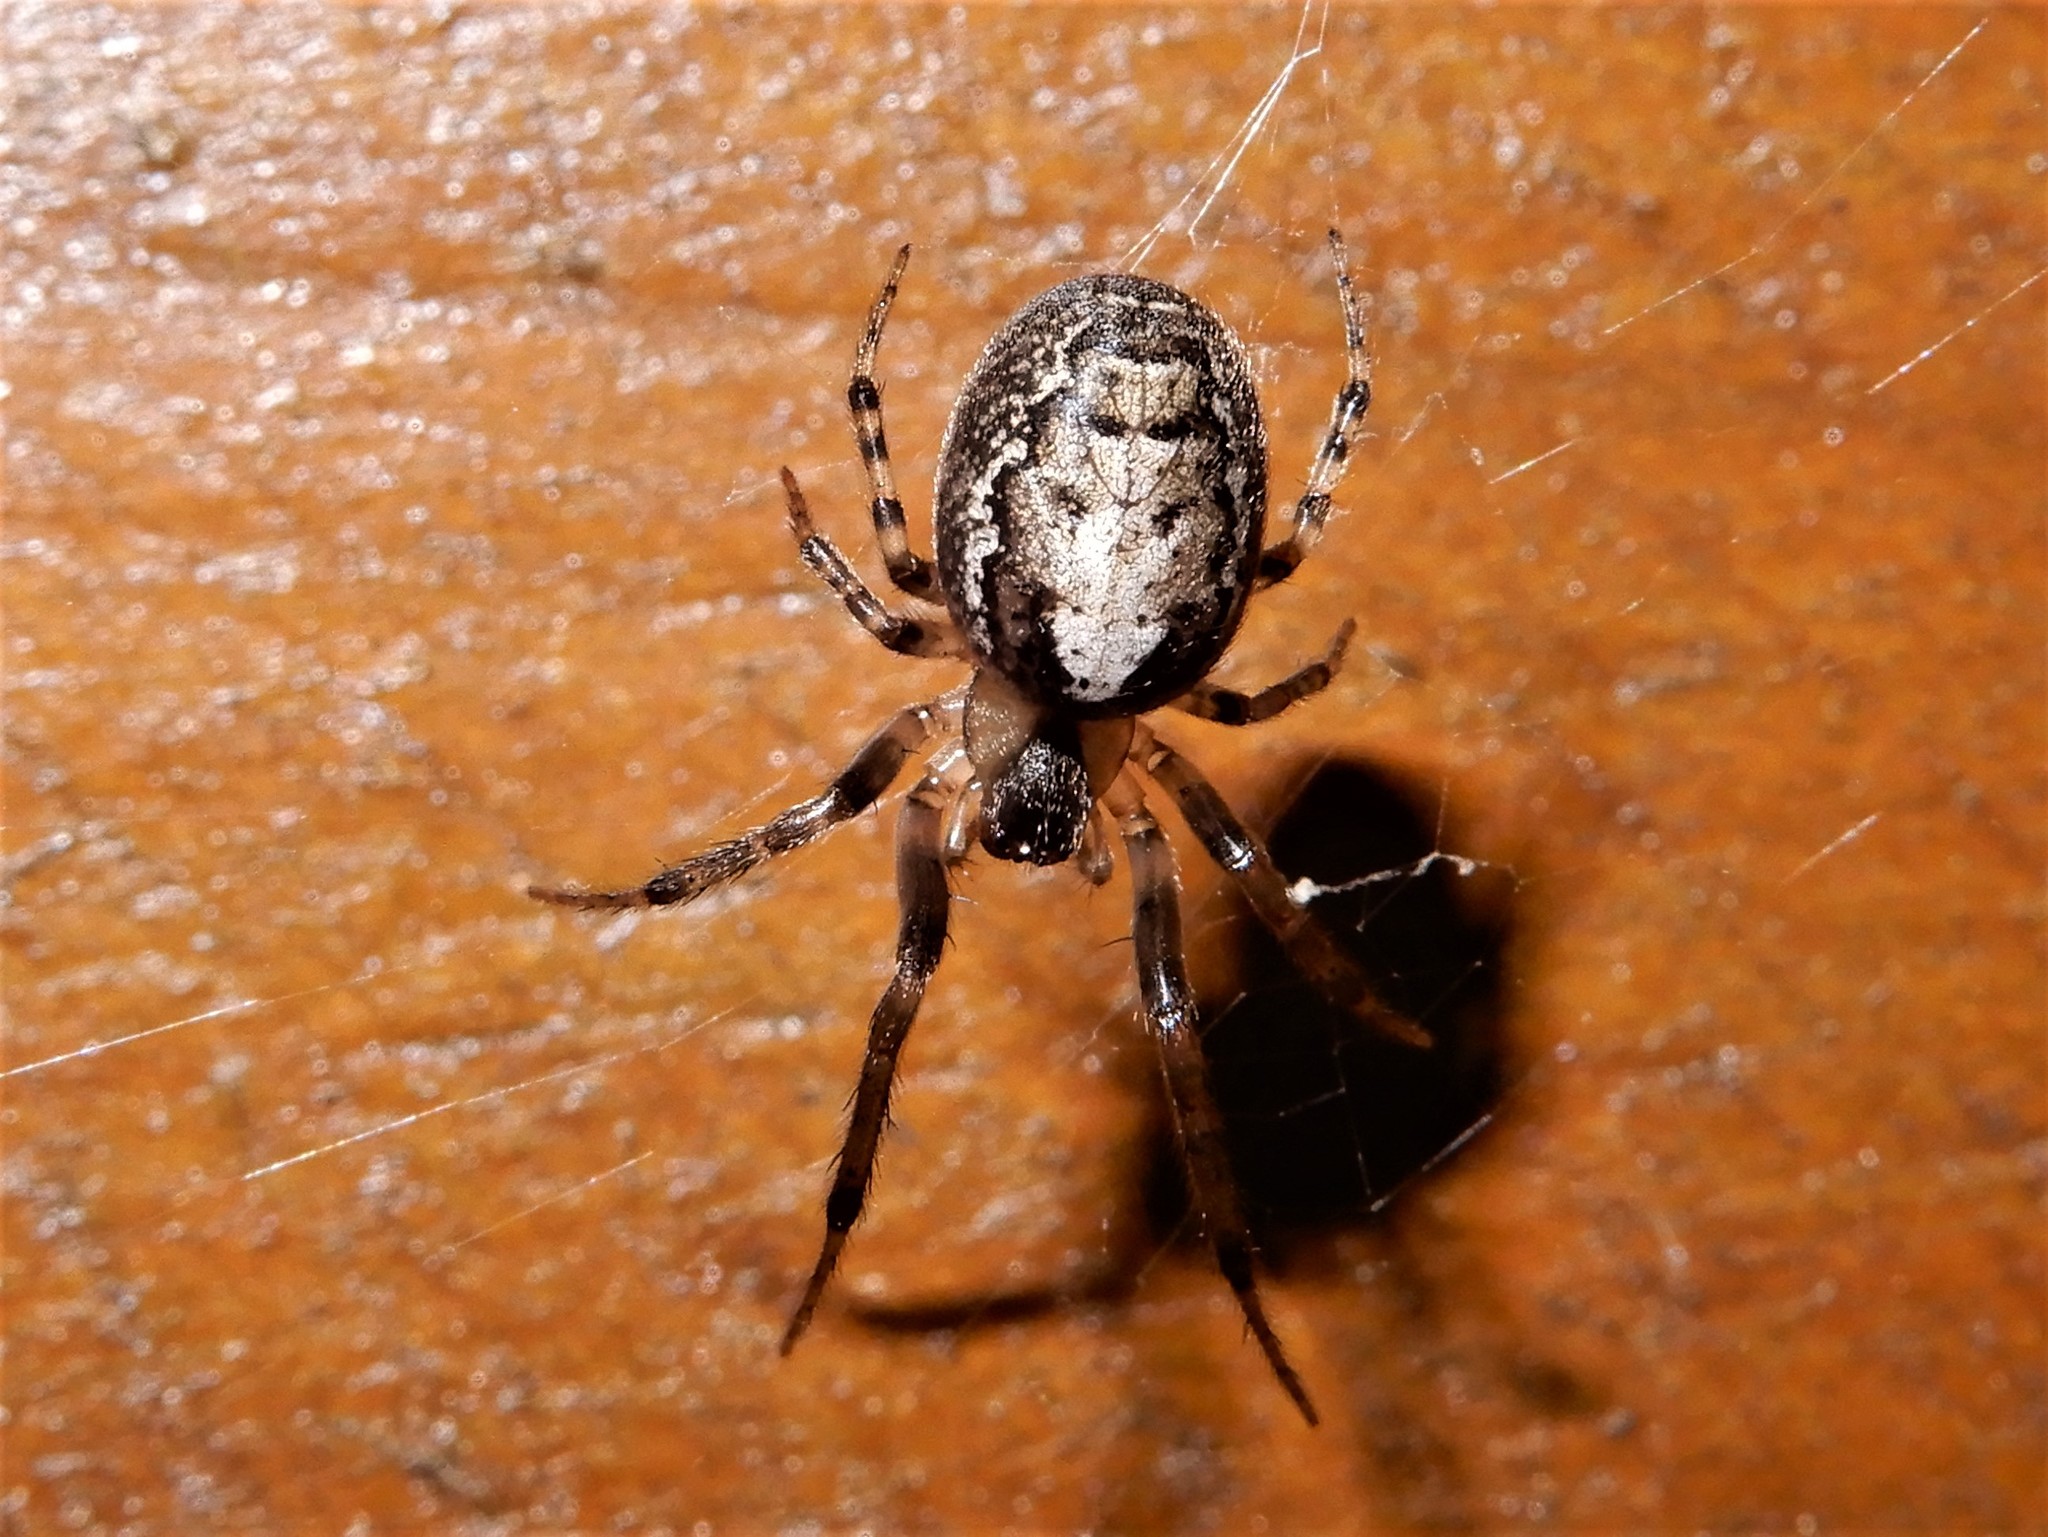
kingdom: Animalia
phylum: Arthropoda
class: Arachnida
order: Araneae
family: Araneidae
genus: Zygiella
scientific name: Zygiella x-notata
